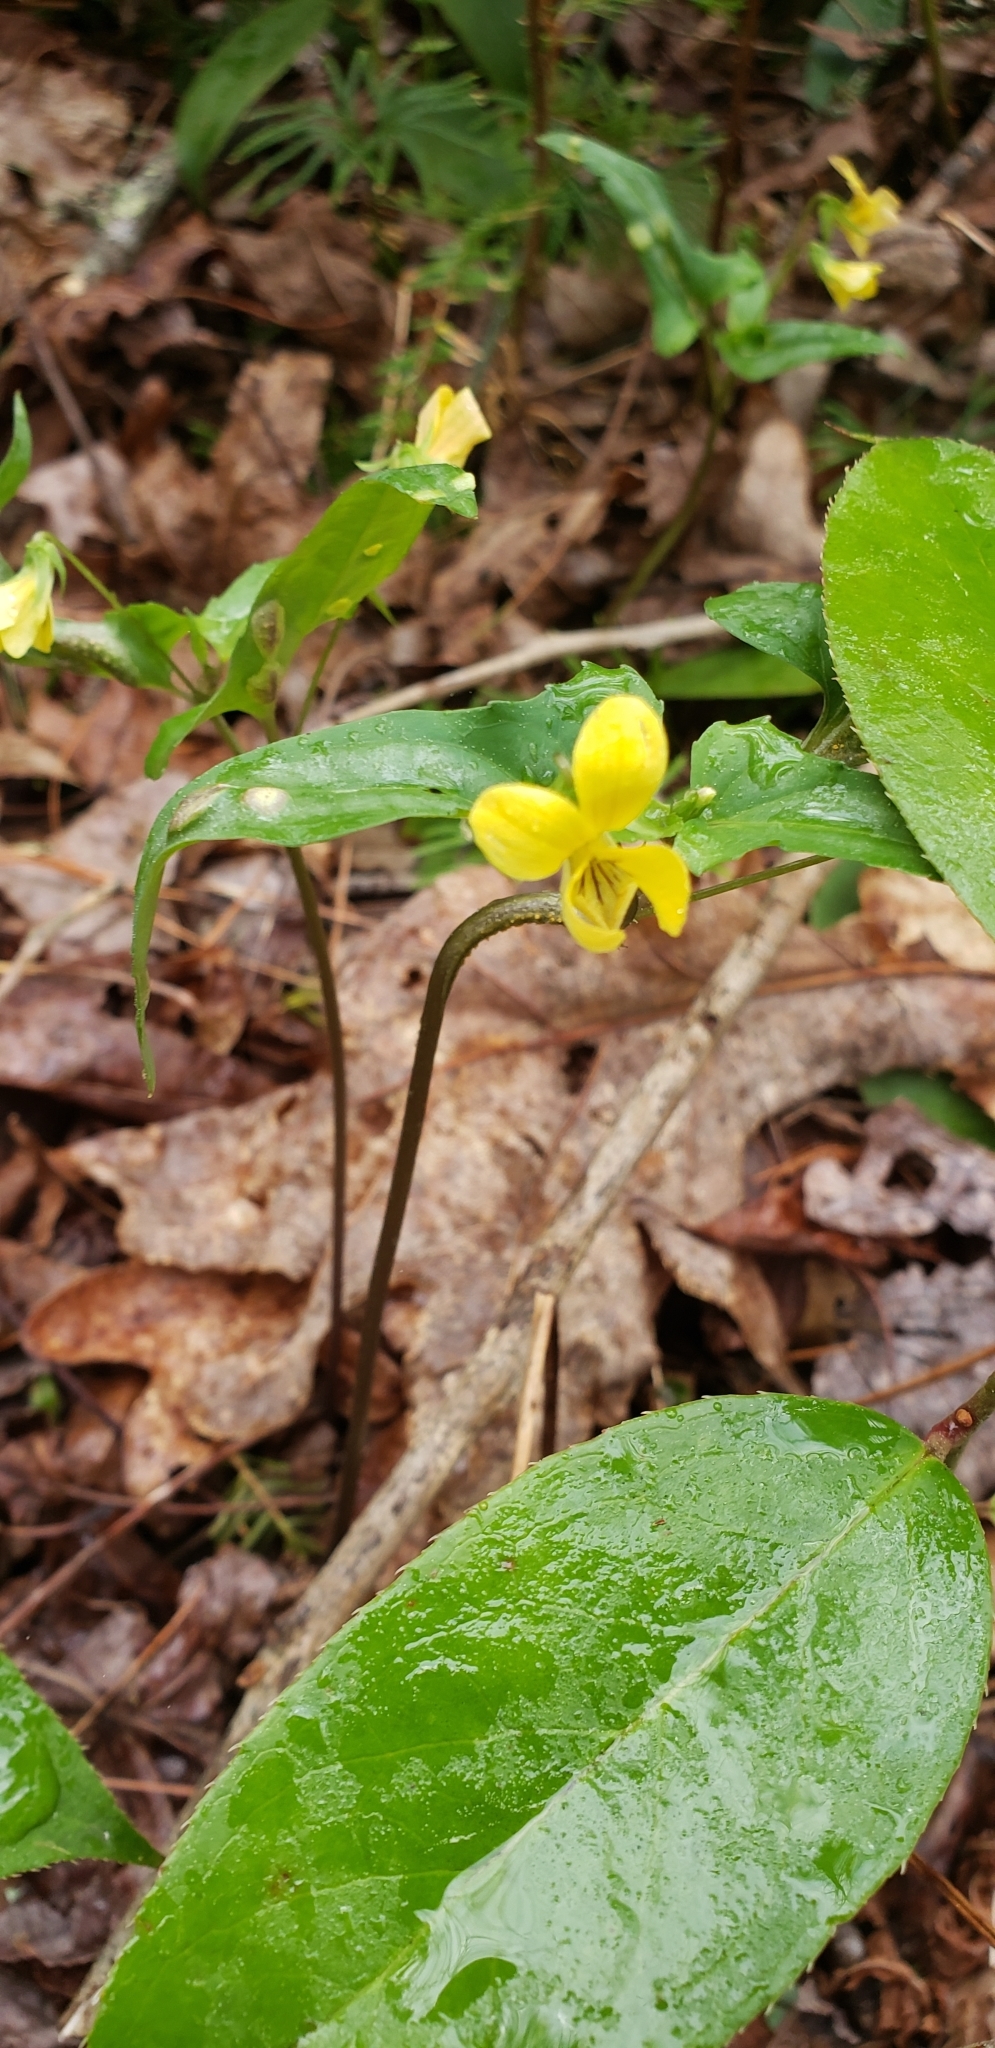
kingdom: Plantae
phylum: Tracheophyta
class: Magnoliopsida
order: Malpighiales
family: Violaceae
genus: Viola
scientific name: Viola hastata
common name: Spear-leaf violet
